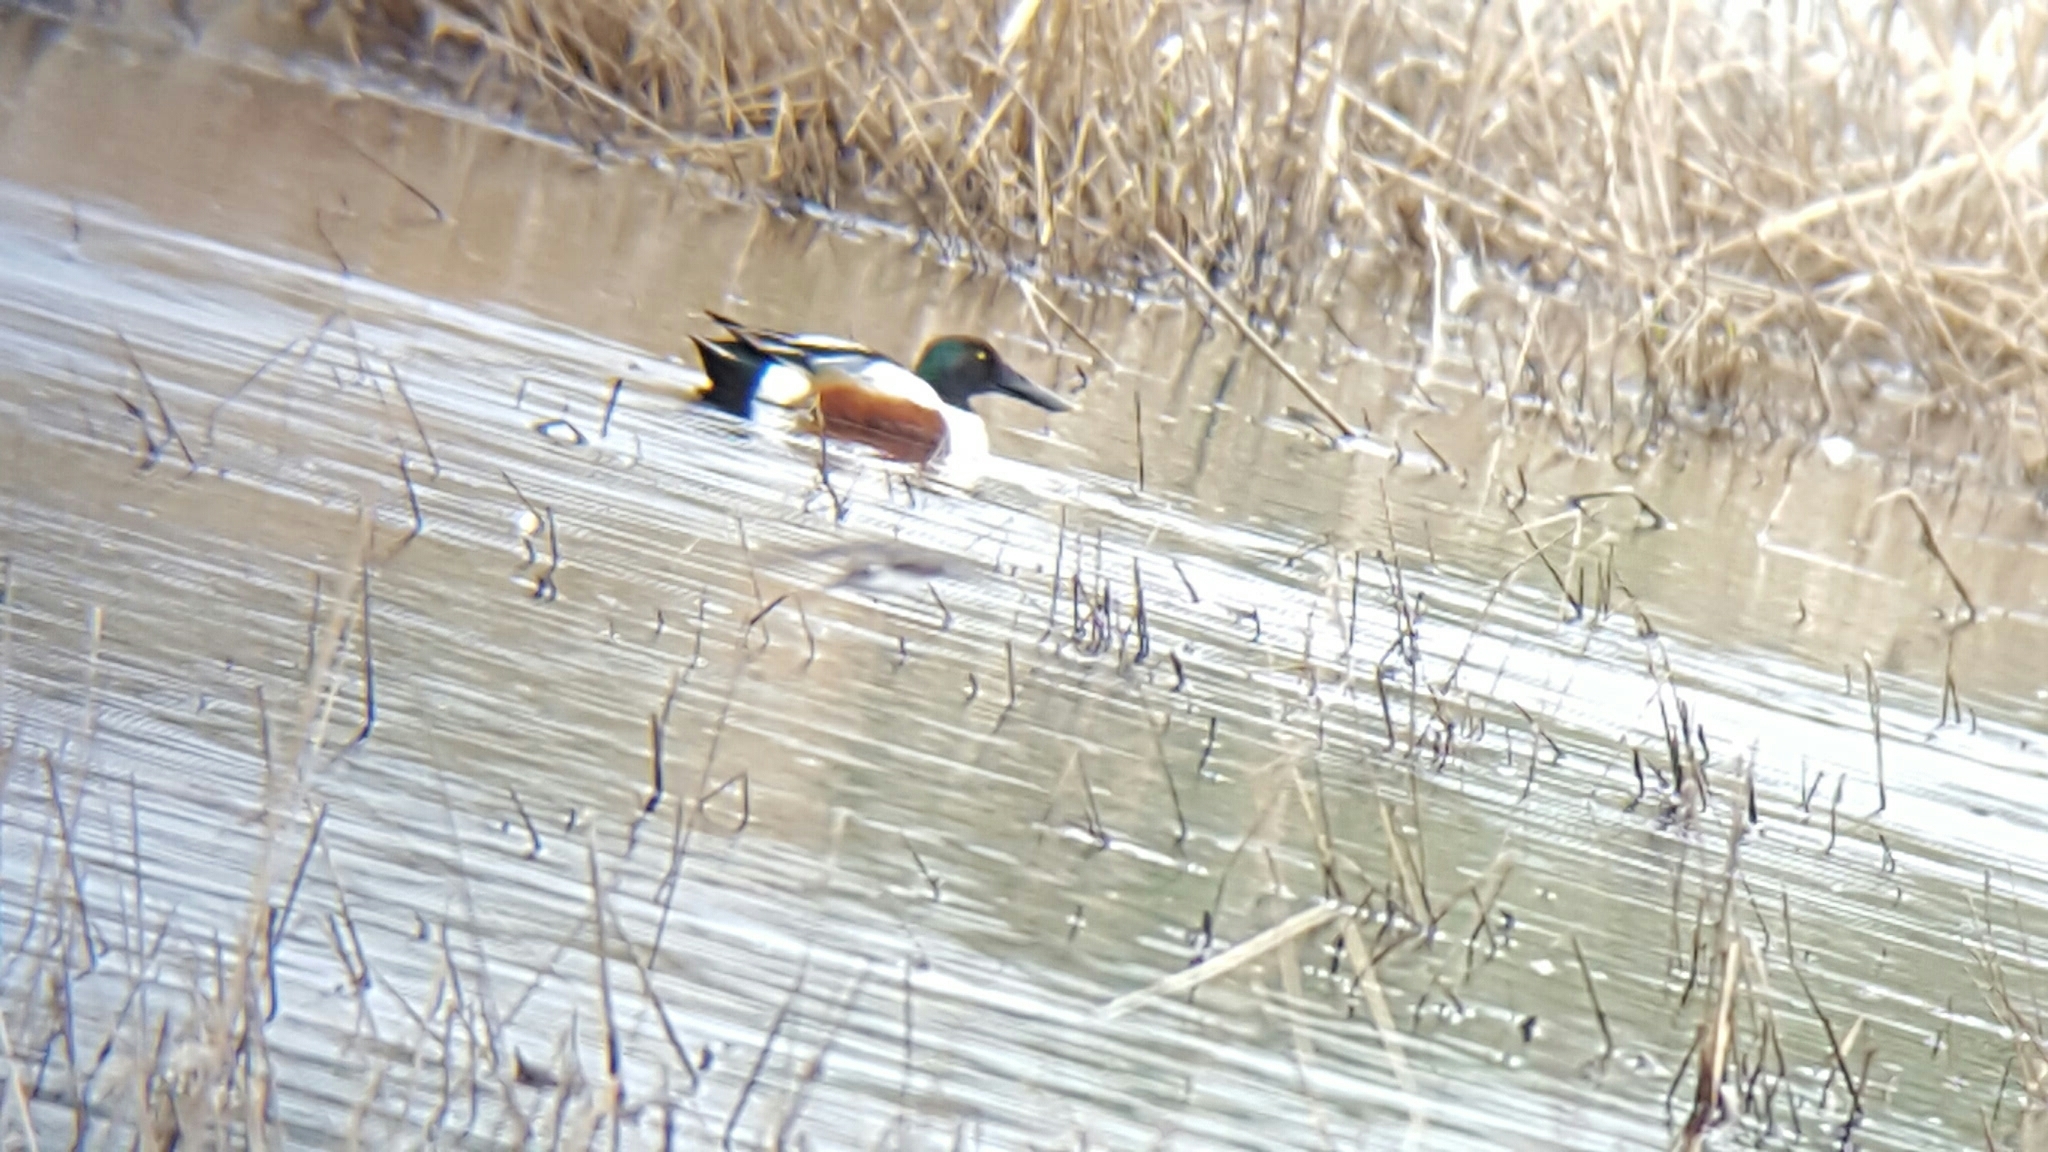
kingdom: Animalia
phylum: Chordata
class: Aves
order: Anseriformes
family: Anatidae
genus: Spatula
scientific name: Spatula clypeata
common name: Northern shoveler
